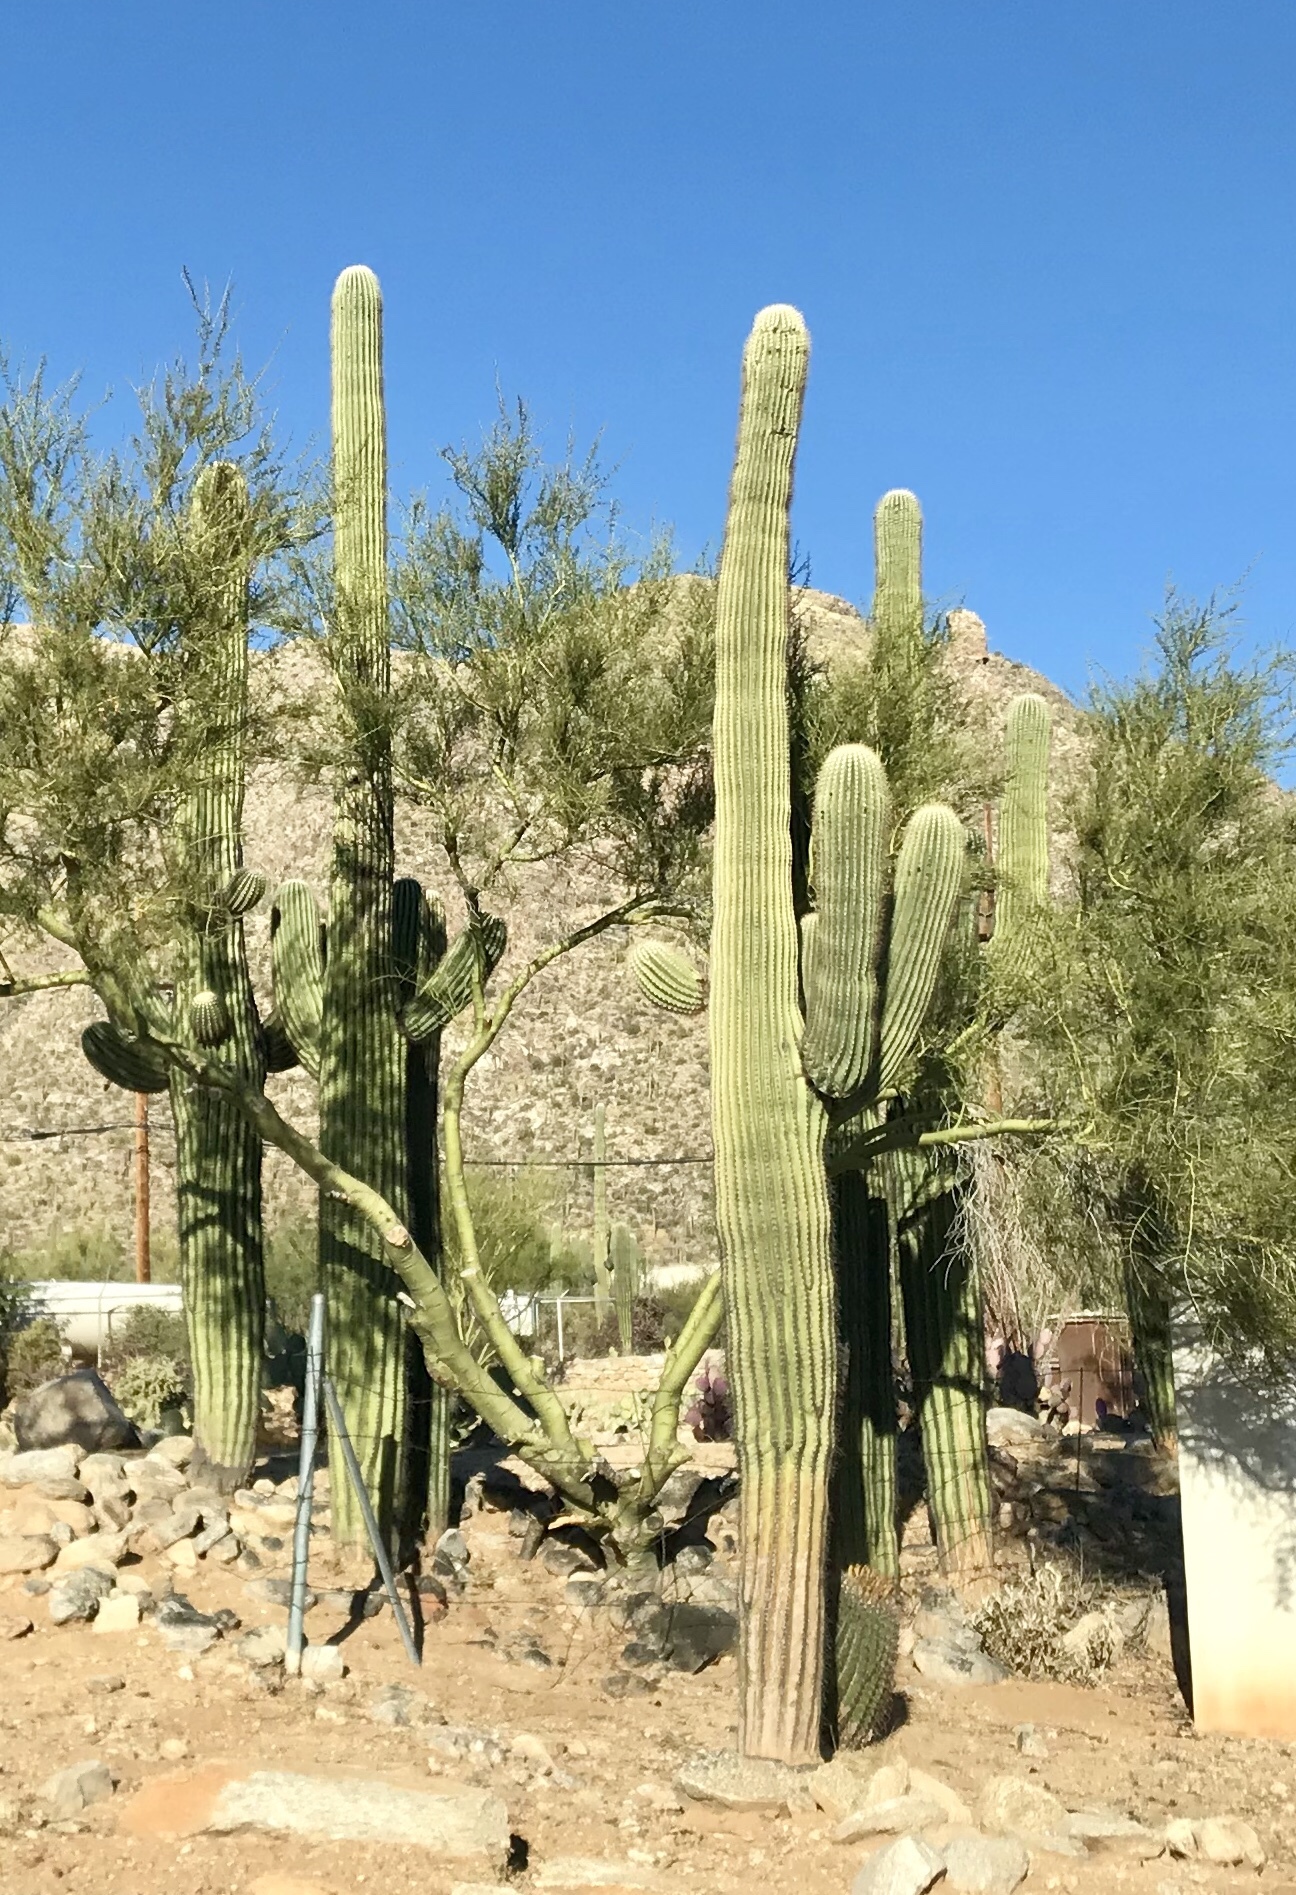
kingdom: Plantae
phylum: Tracheophyta
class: Magnoliopsida
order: Caryophyllales
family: Cactaceae
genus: Carnegiea
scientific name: Carnegiea gigantea
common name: Saguaro
